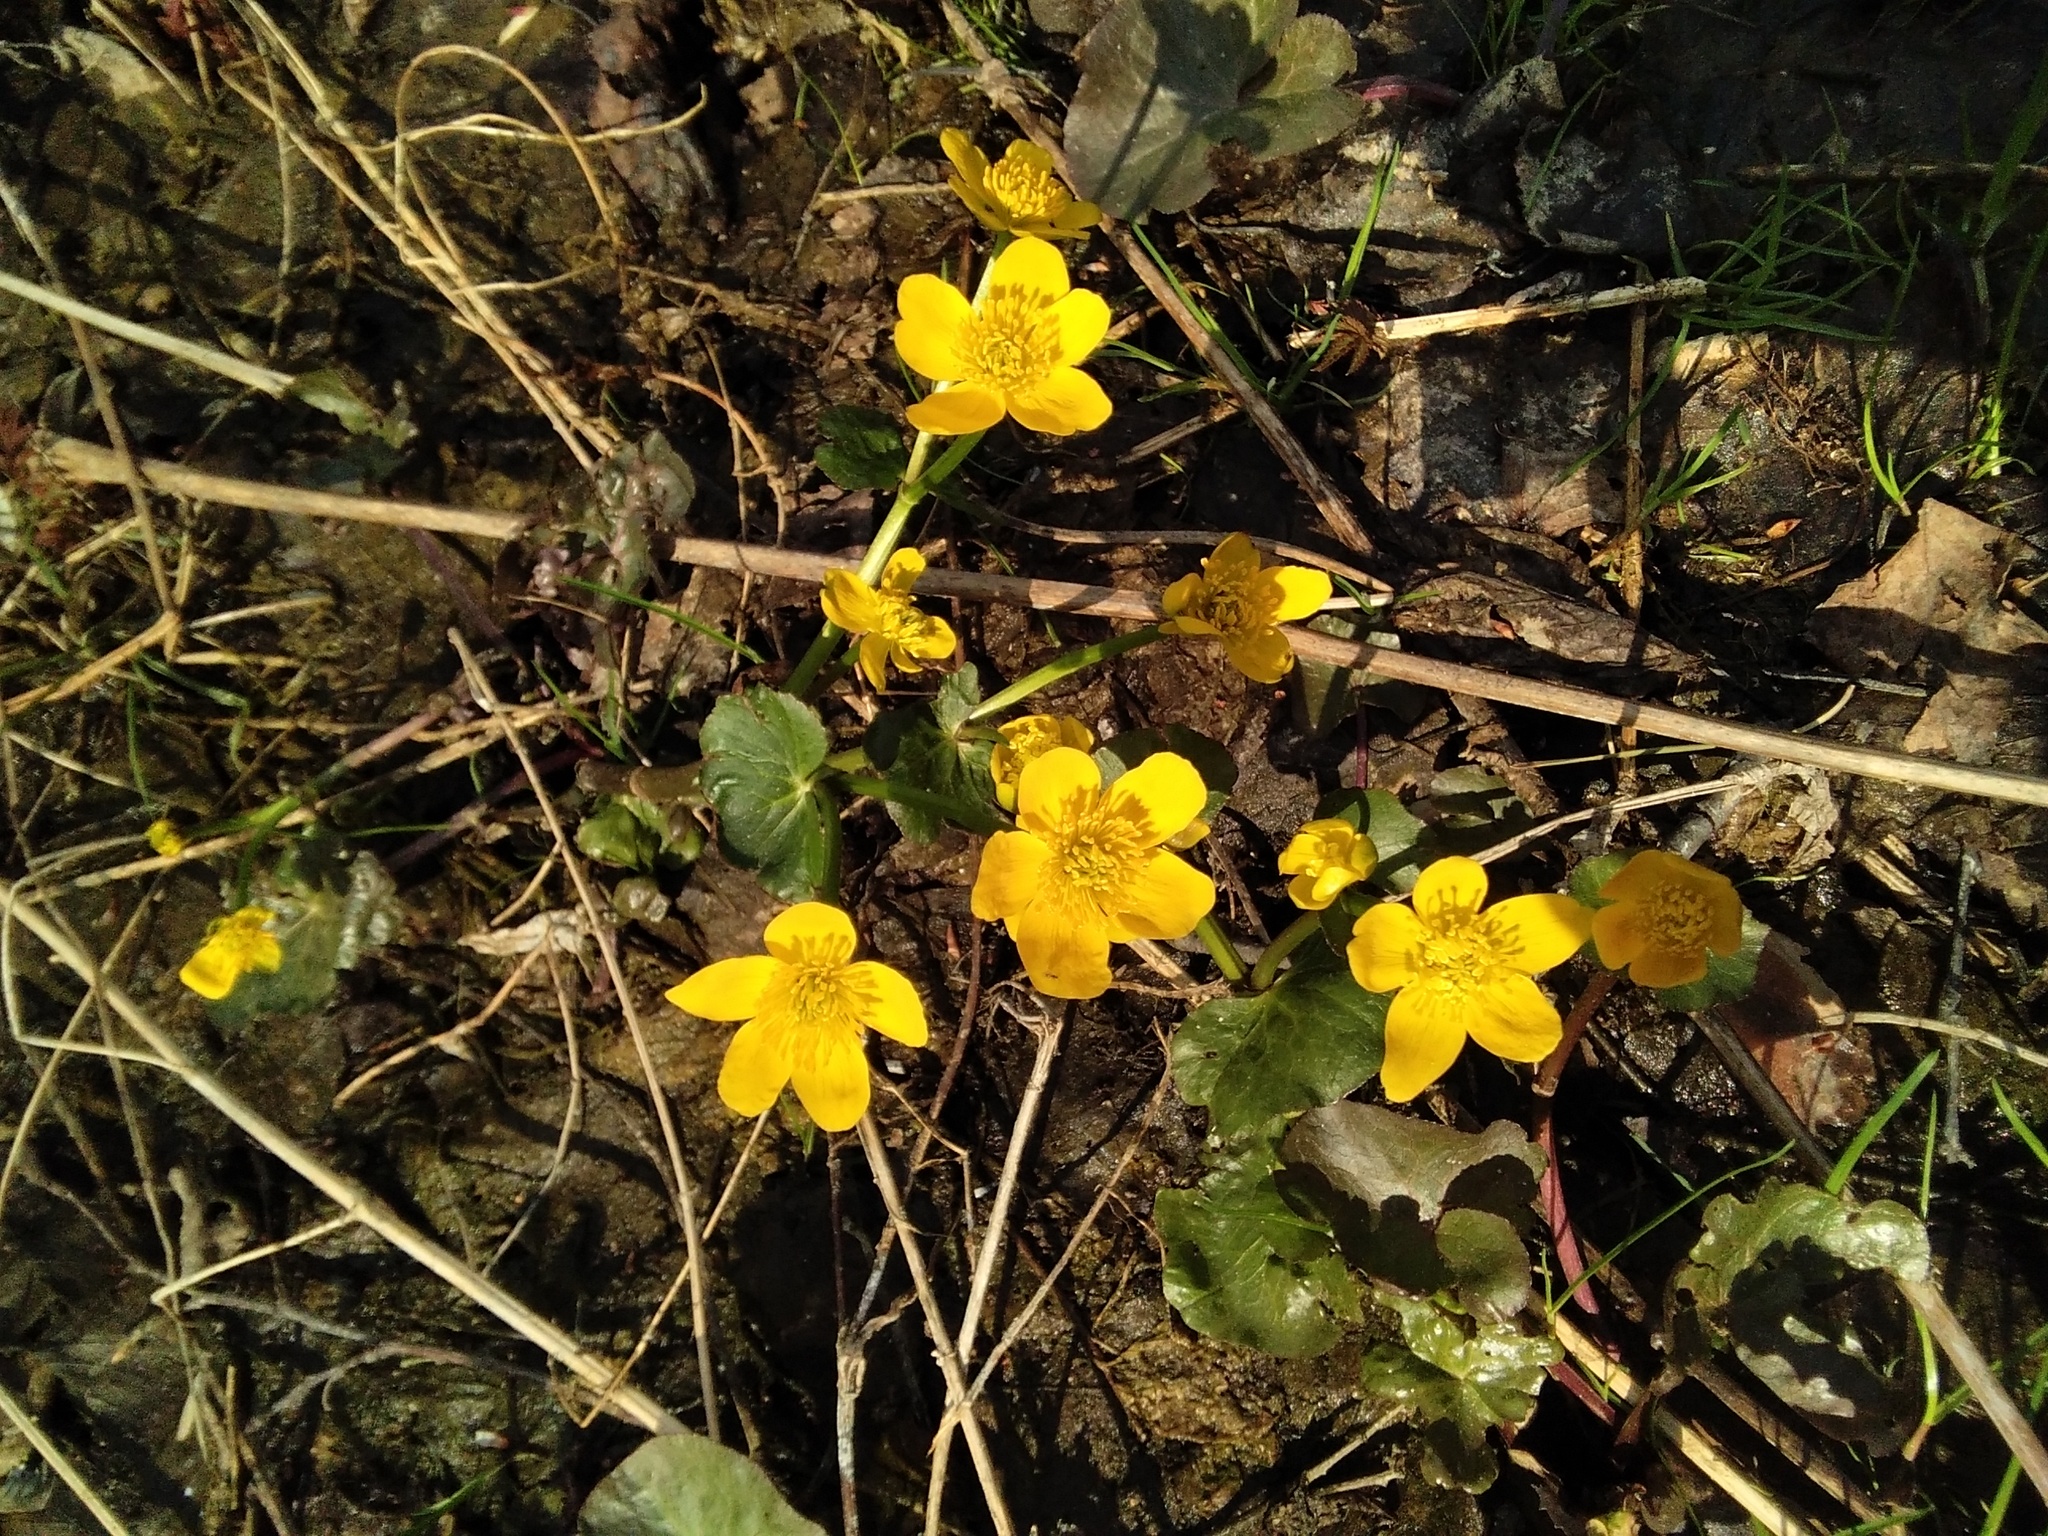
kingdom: Plantae
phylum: Tracheophyta
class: Magnoliopsida
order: Ranunculales
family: Ranunculaceae
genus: Caltha
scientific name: Caltha palustris
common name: Marsh marigold
